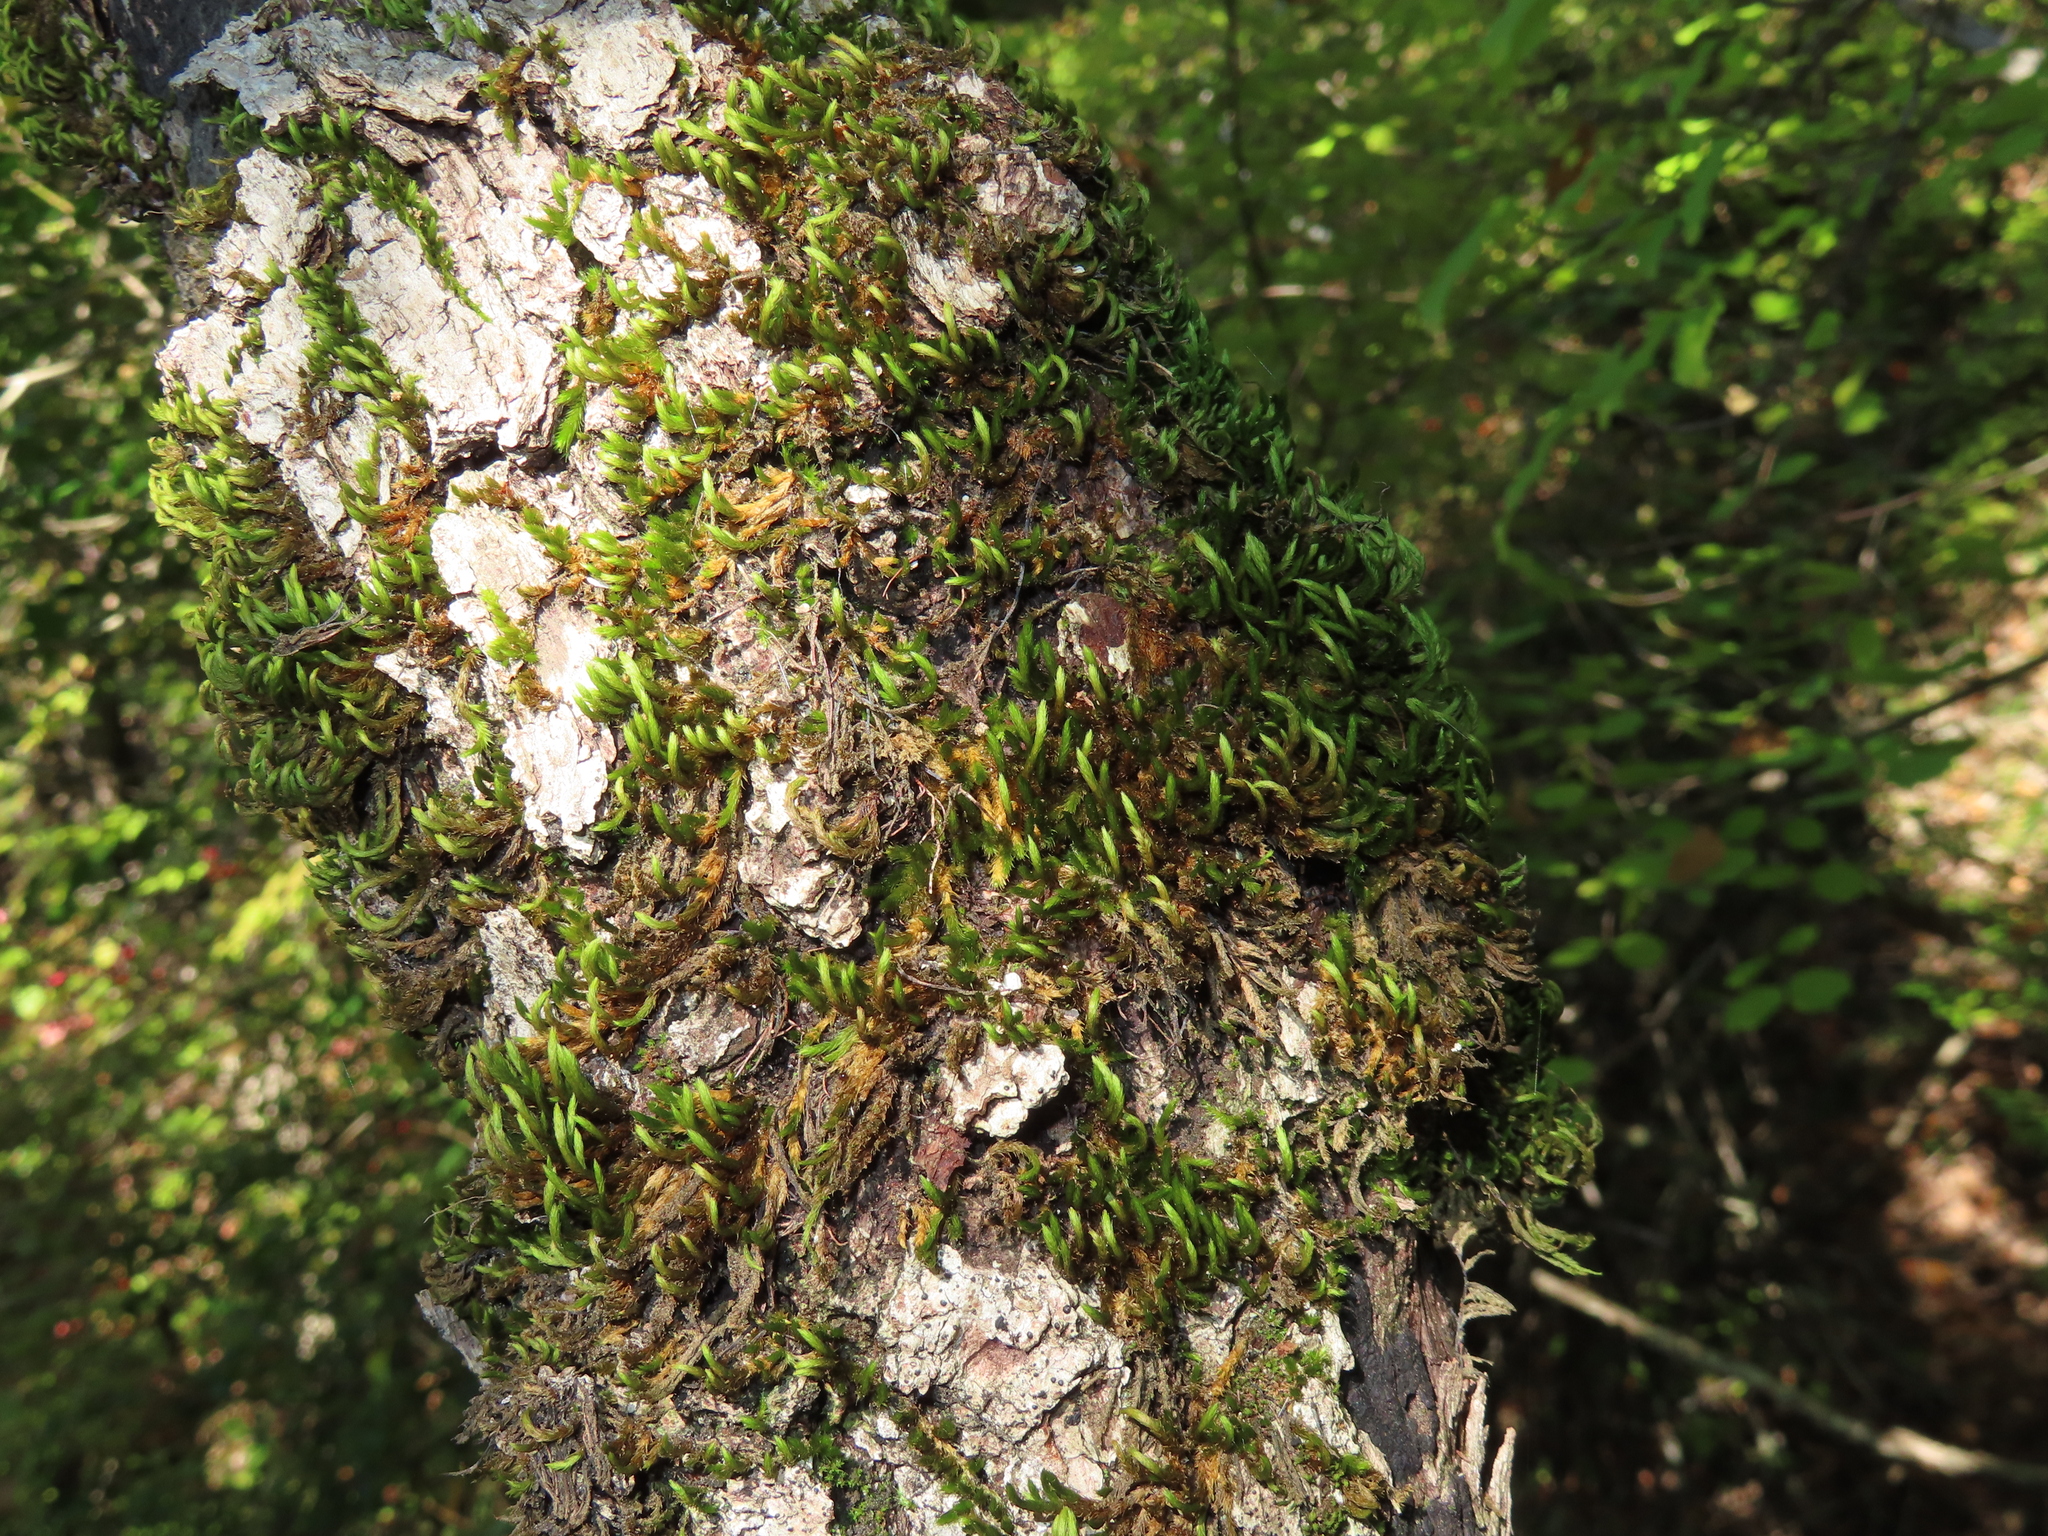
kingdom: Plantae
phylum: Bryophyta
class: Bryopsida
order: Hypnales
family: Leucodontaceae
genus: Leucodon
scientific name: Leucodon sciuroides
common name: Squirrel-tail moss
